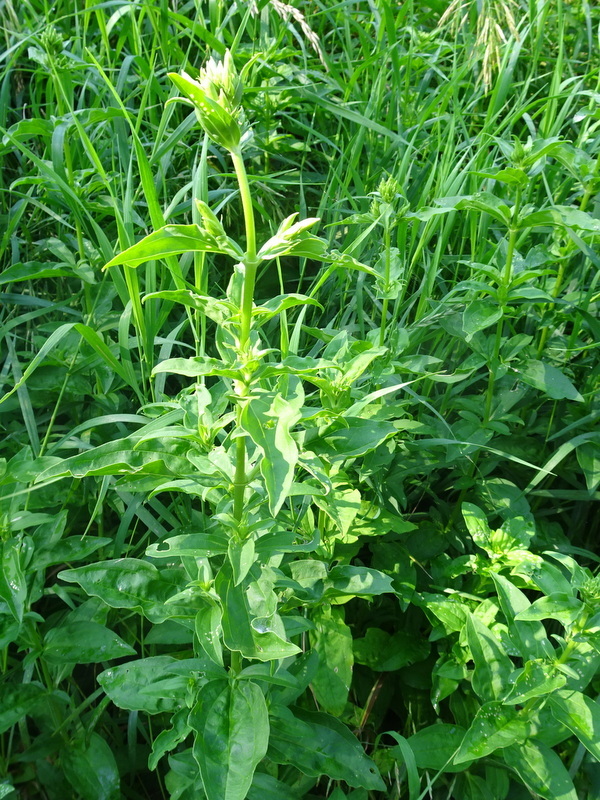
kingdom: Plantae
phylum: Tracheophyta
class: Magnoliopsida
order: Caryophyllales
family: Caryophyllaceae
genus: Saponaria
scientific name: Saponaria officinalis
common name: Soapwort
